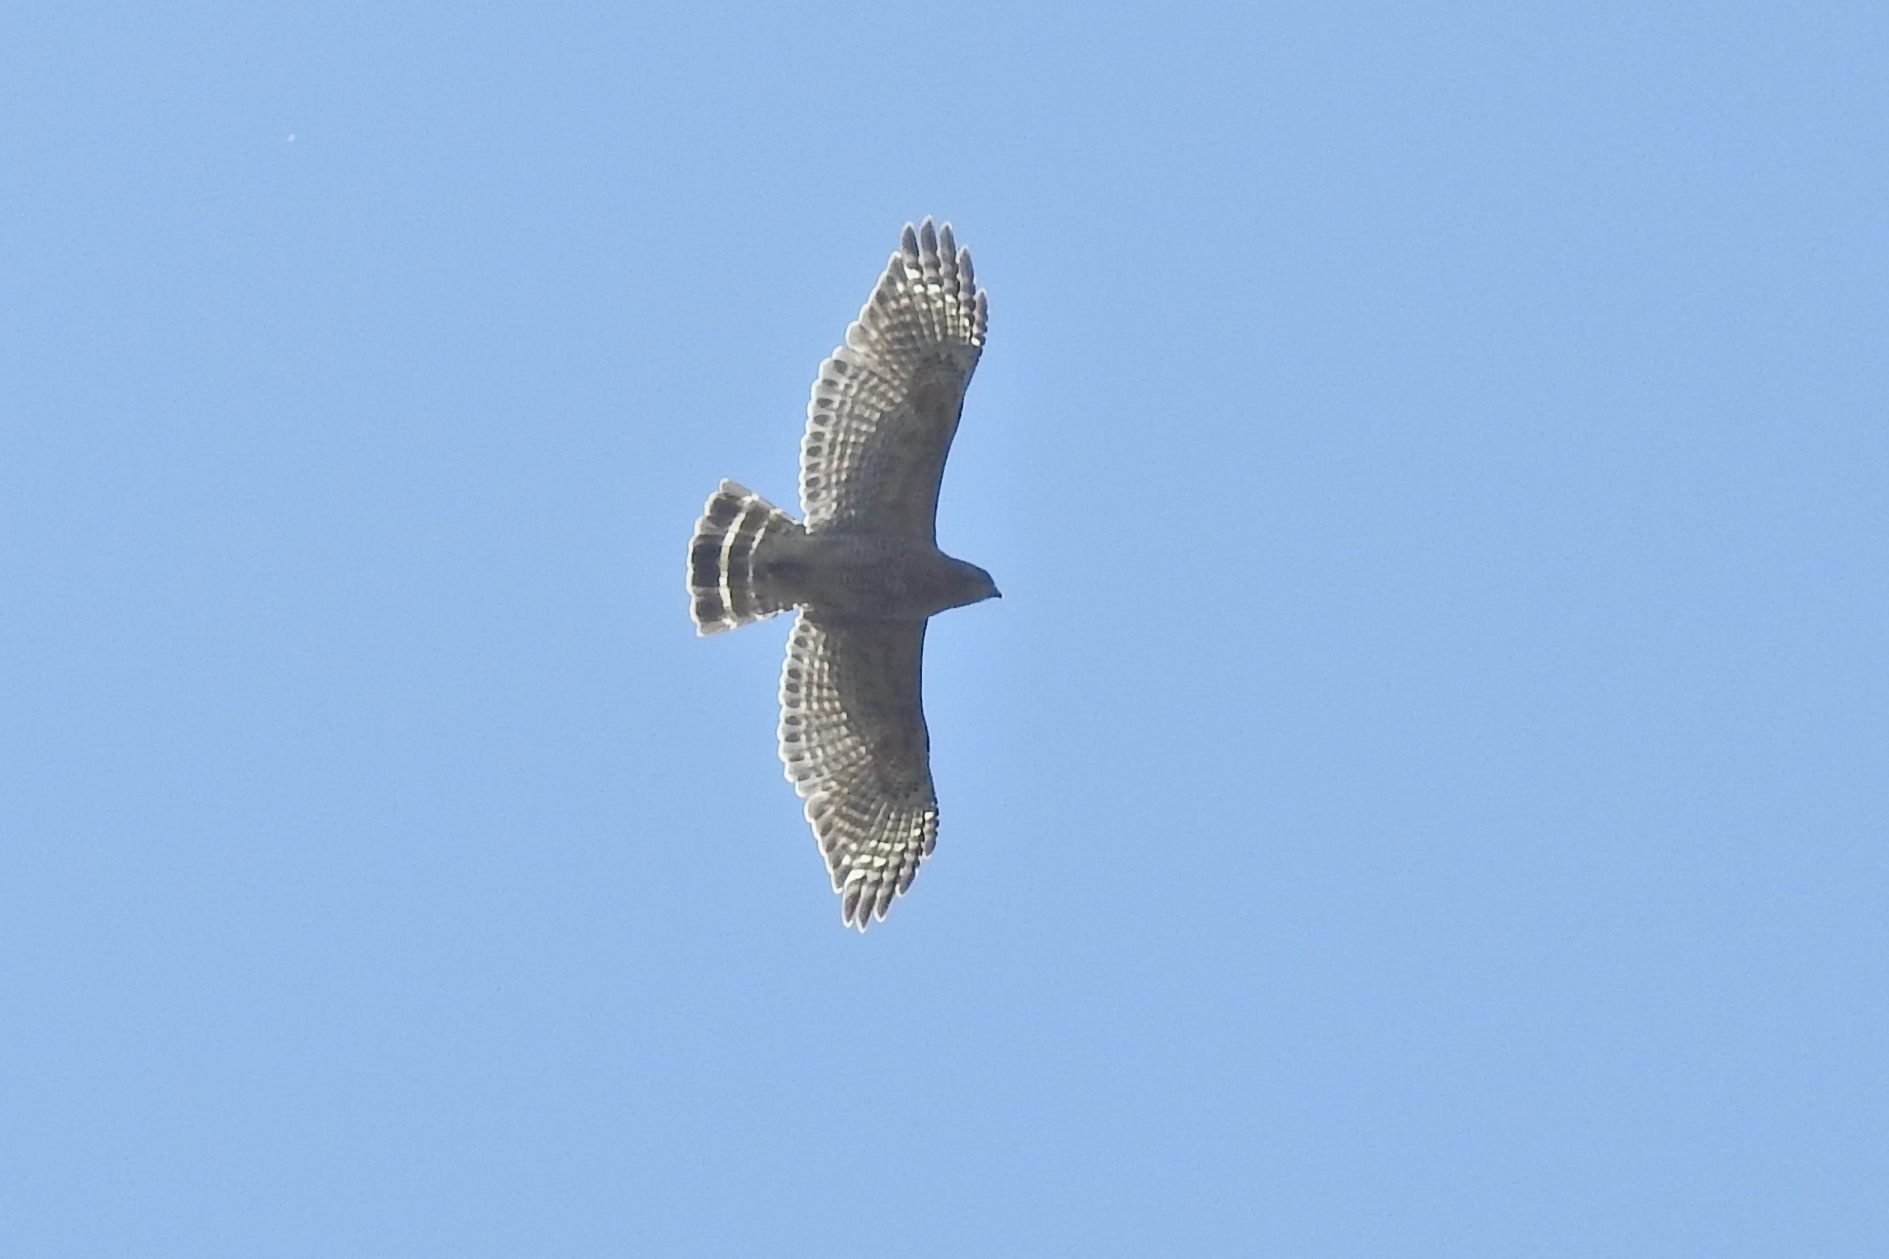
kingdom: Animalia
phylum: Chordata
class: Aves
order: Accipitriformes
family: Accipitridae
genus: Buteo
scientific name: Buteo lineatus
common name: Red-shouldered hawk
